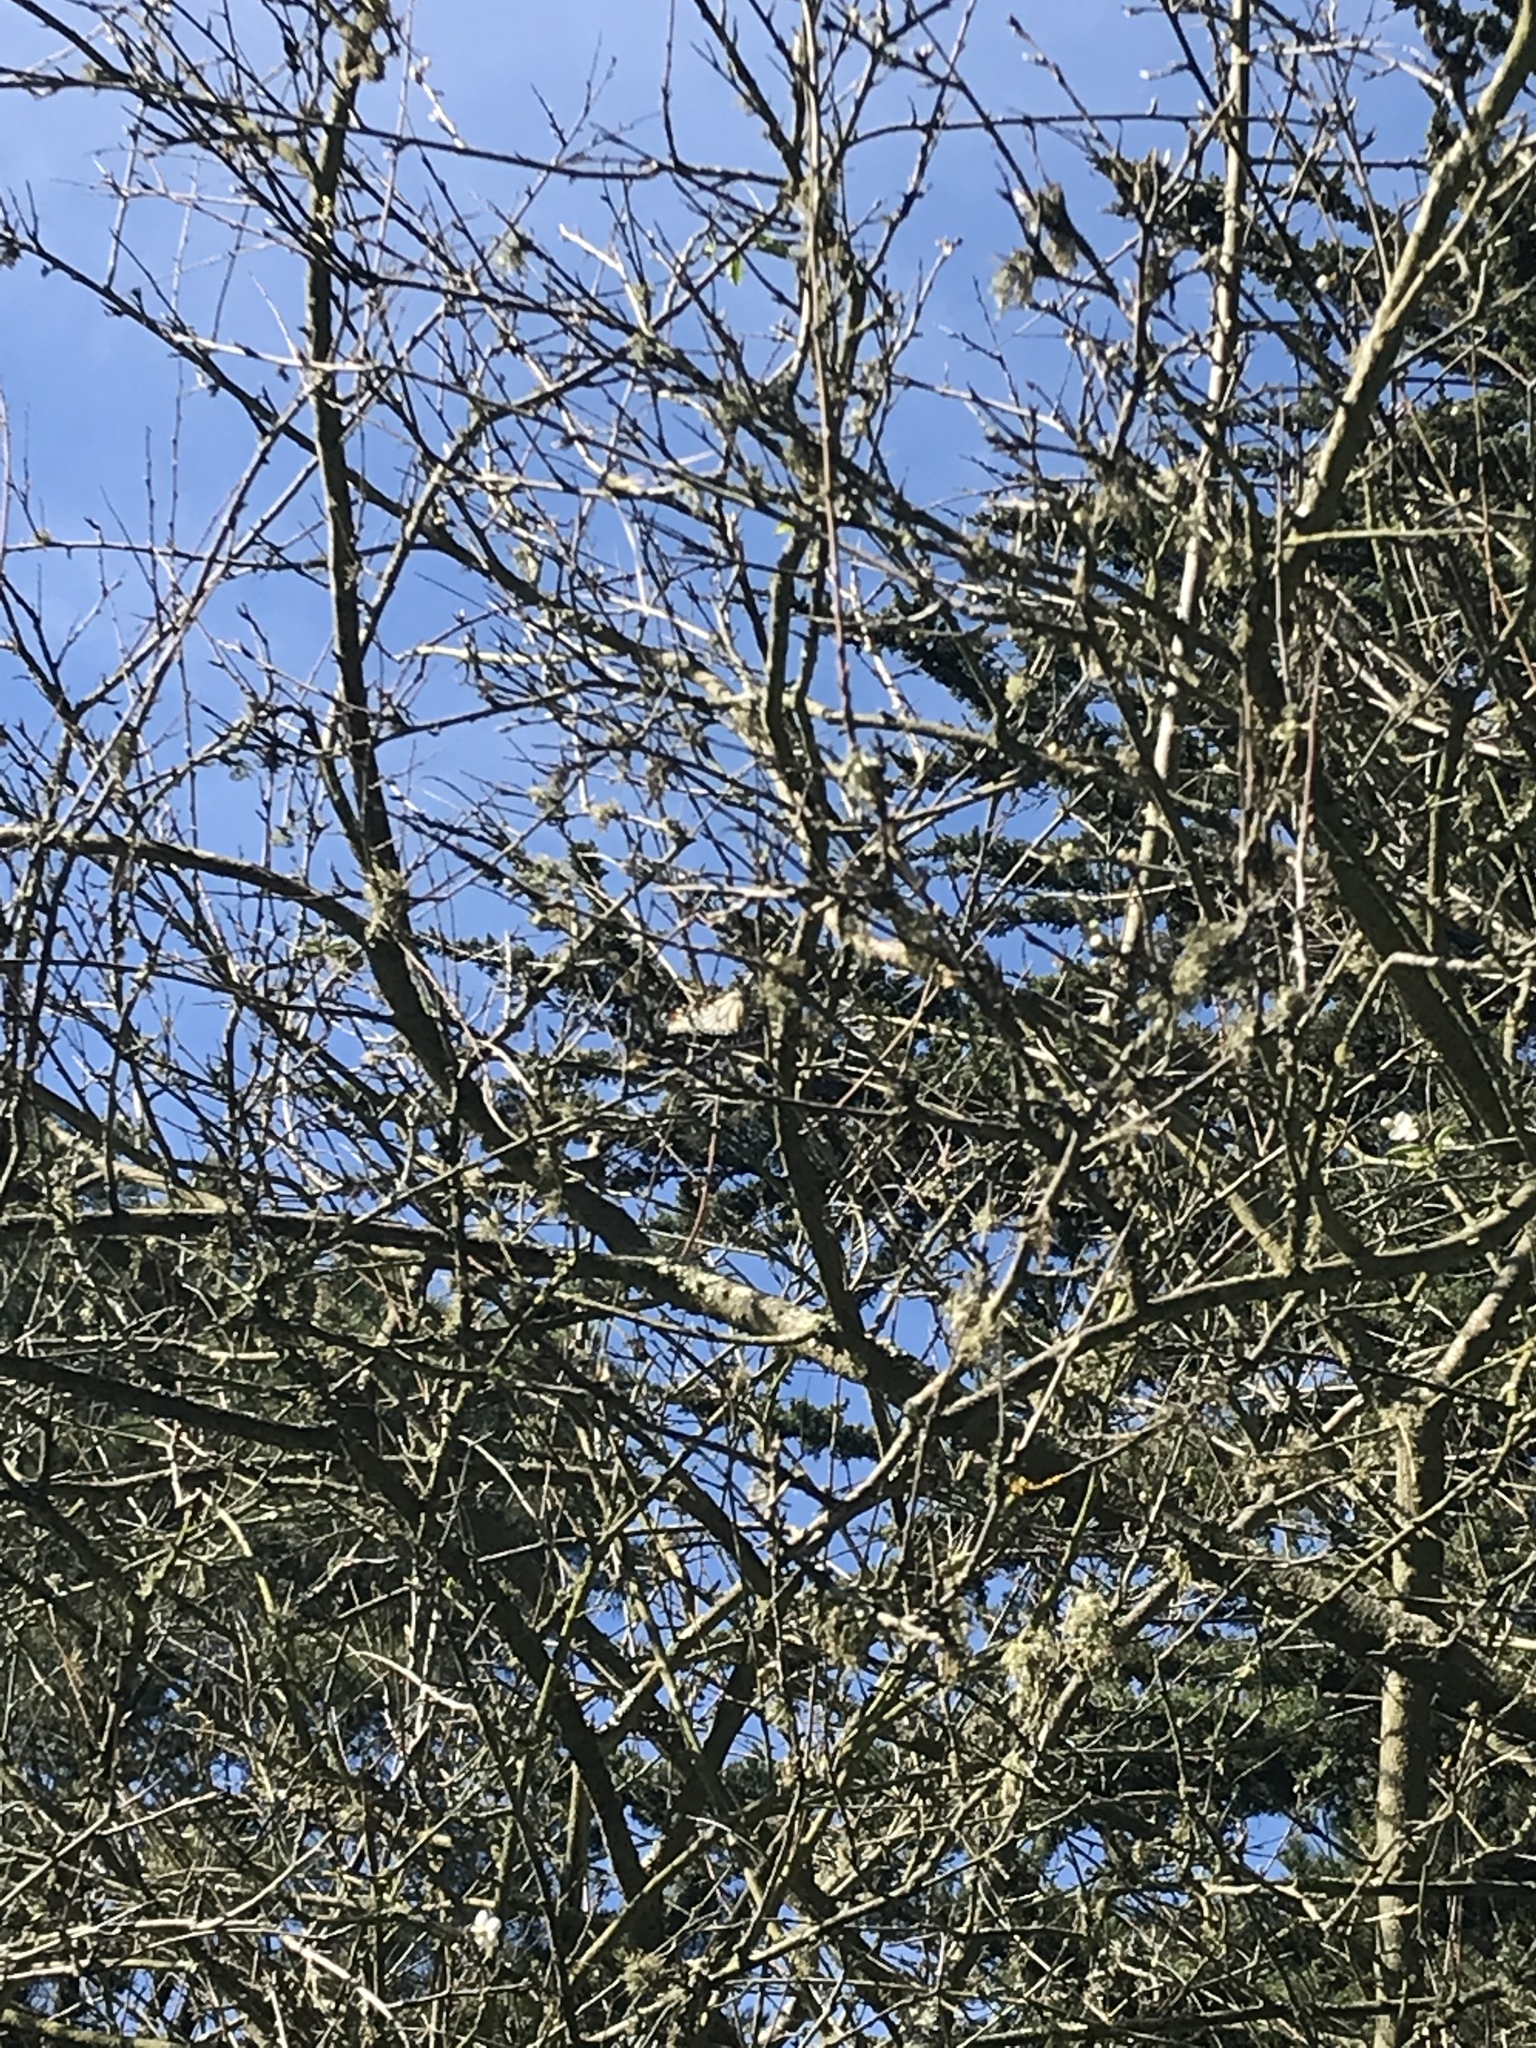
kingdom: Animalia
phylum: Arthropoda
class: Insecta
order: Lepidoptera
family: Nymphalidae
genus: Danaus
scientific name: Danaus plexippus
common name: Monarch
